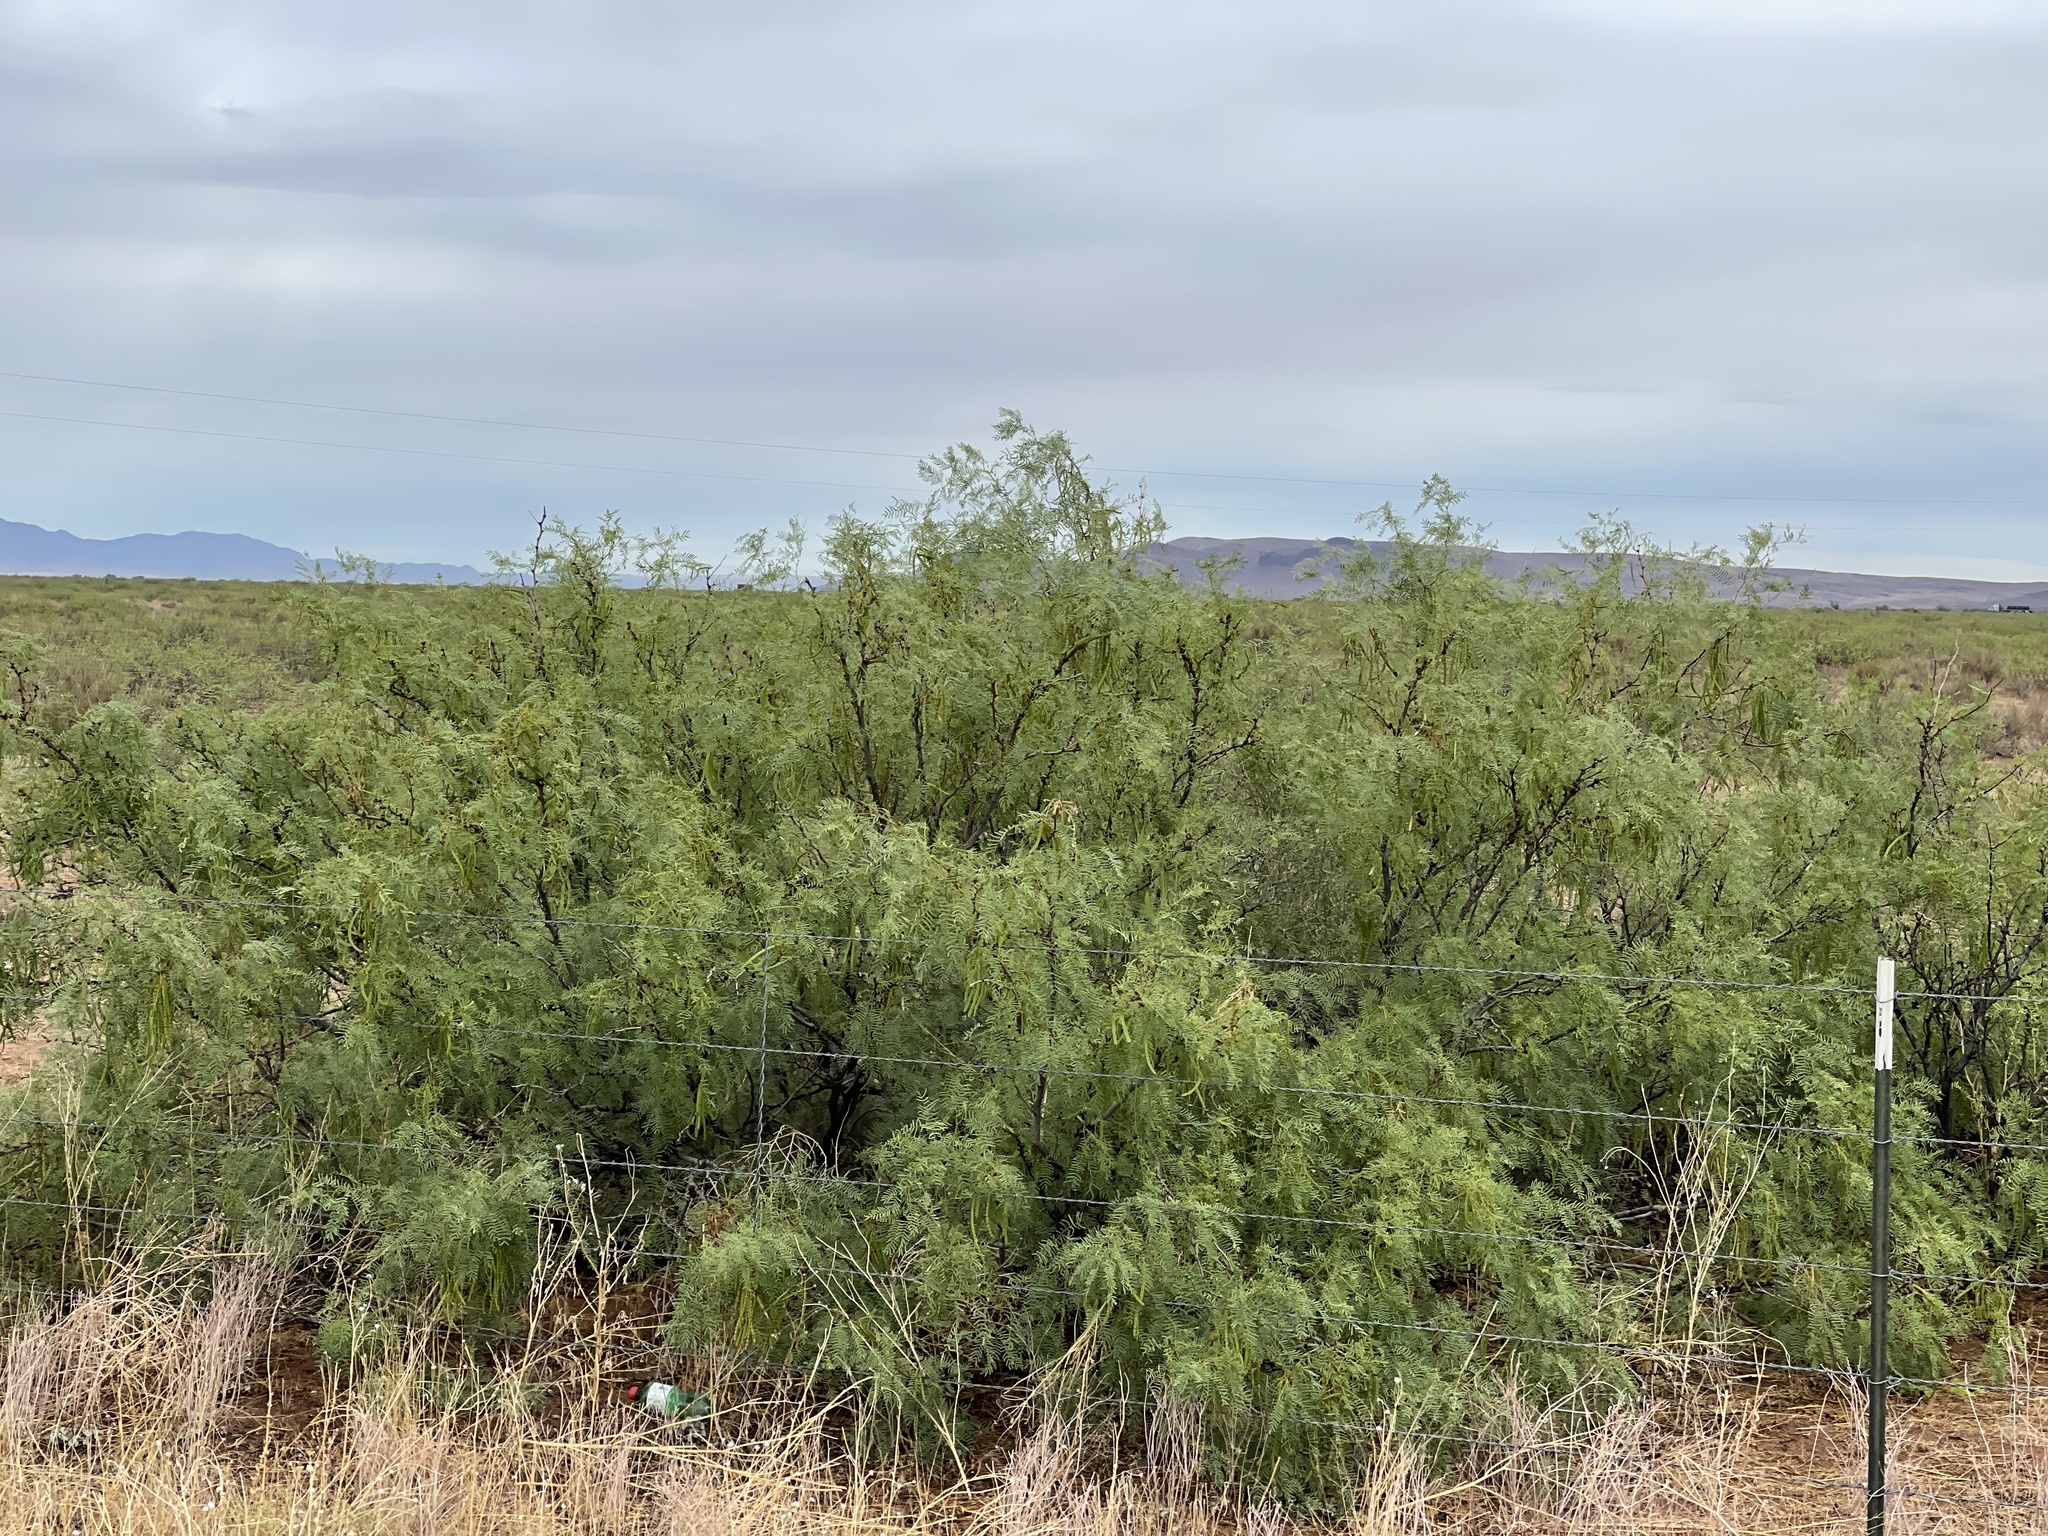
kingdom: Plantae
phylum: Tracheophyta
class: Magnoliopsida
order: Fabales
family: Fabaceae
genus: Prosopis
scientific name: Prosopis glandulosa
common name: Honey mesquite
